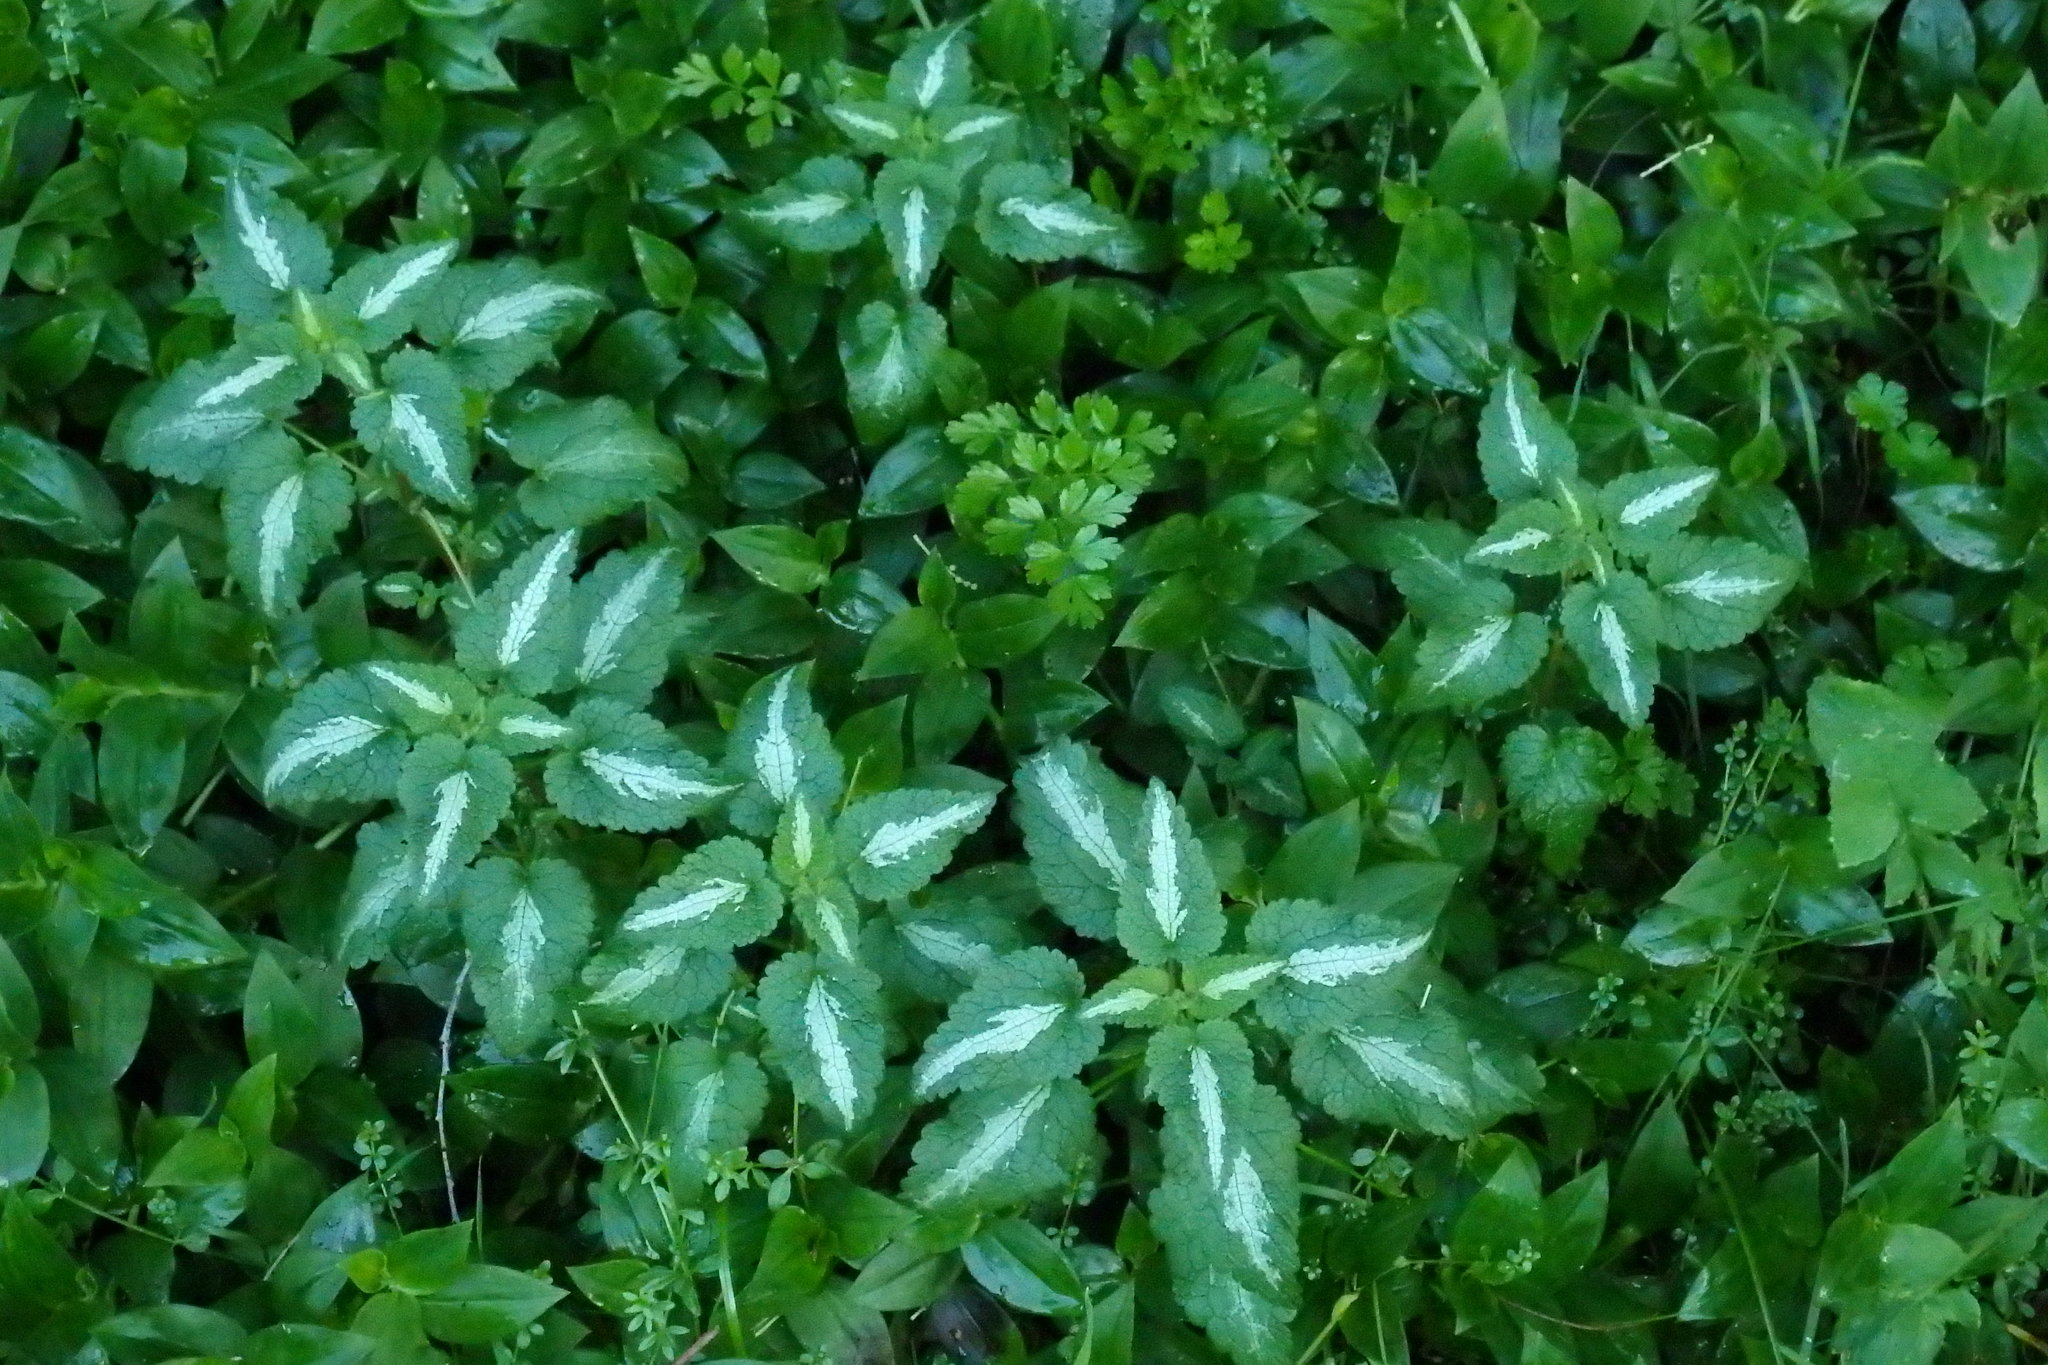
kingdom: Plantae
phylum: Tracheophyta
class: Liliopsida
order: Commelinales
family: Commelinaceae
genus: Tradescantia
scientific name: Tradescantia fluminensis
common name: Wandering-jew
